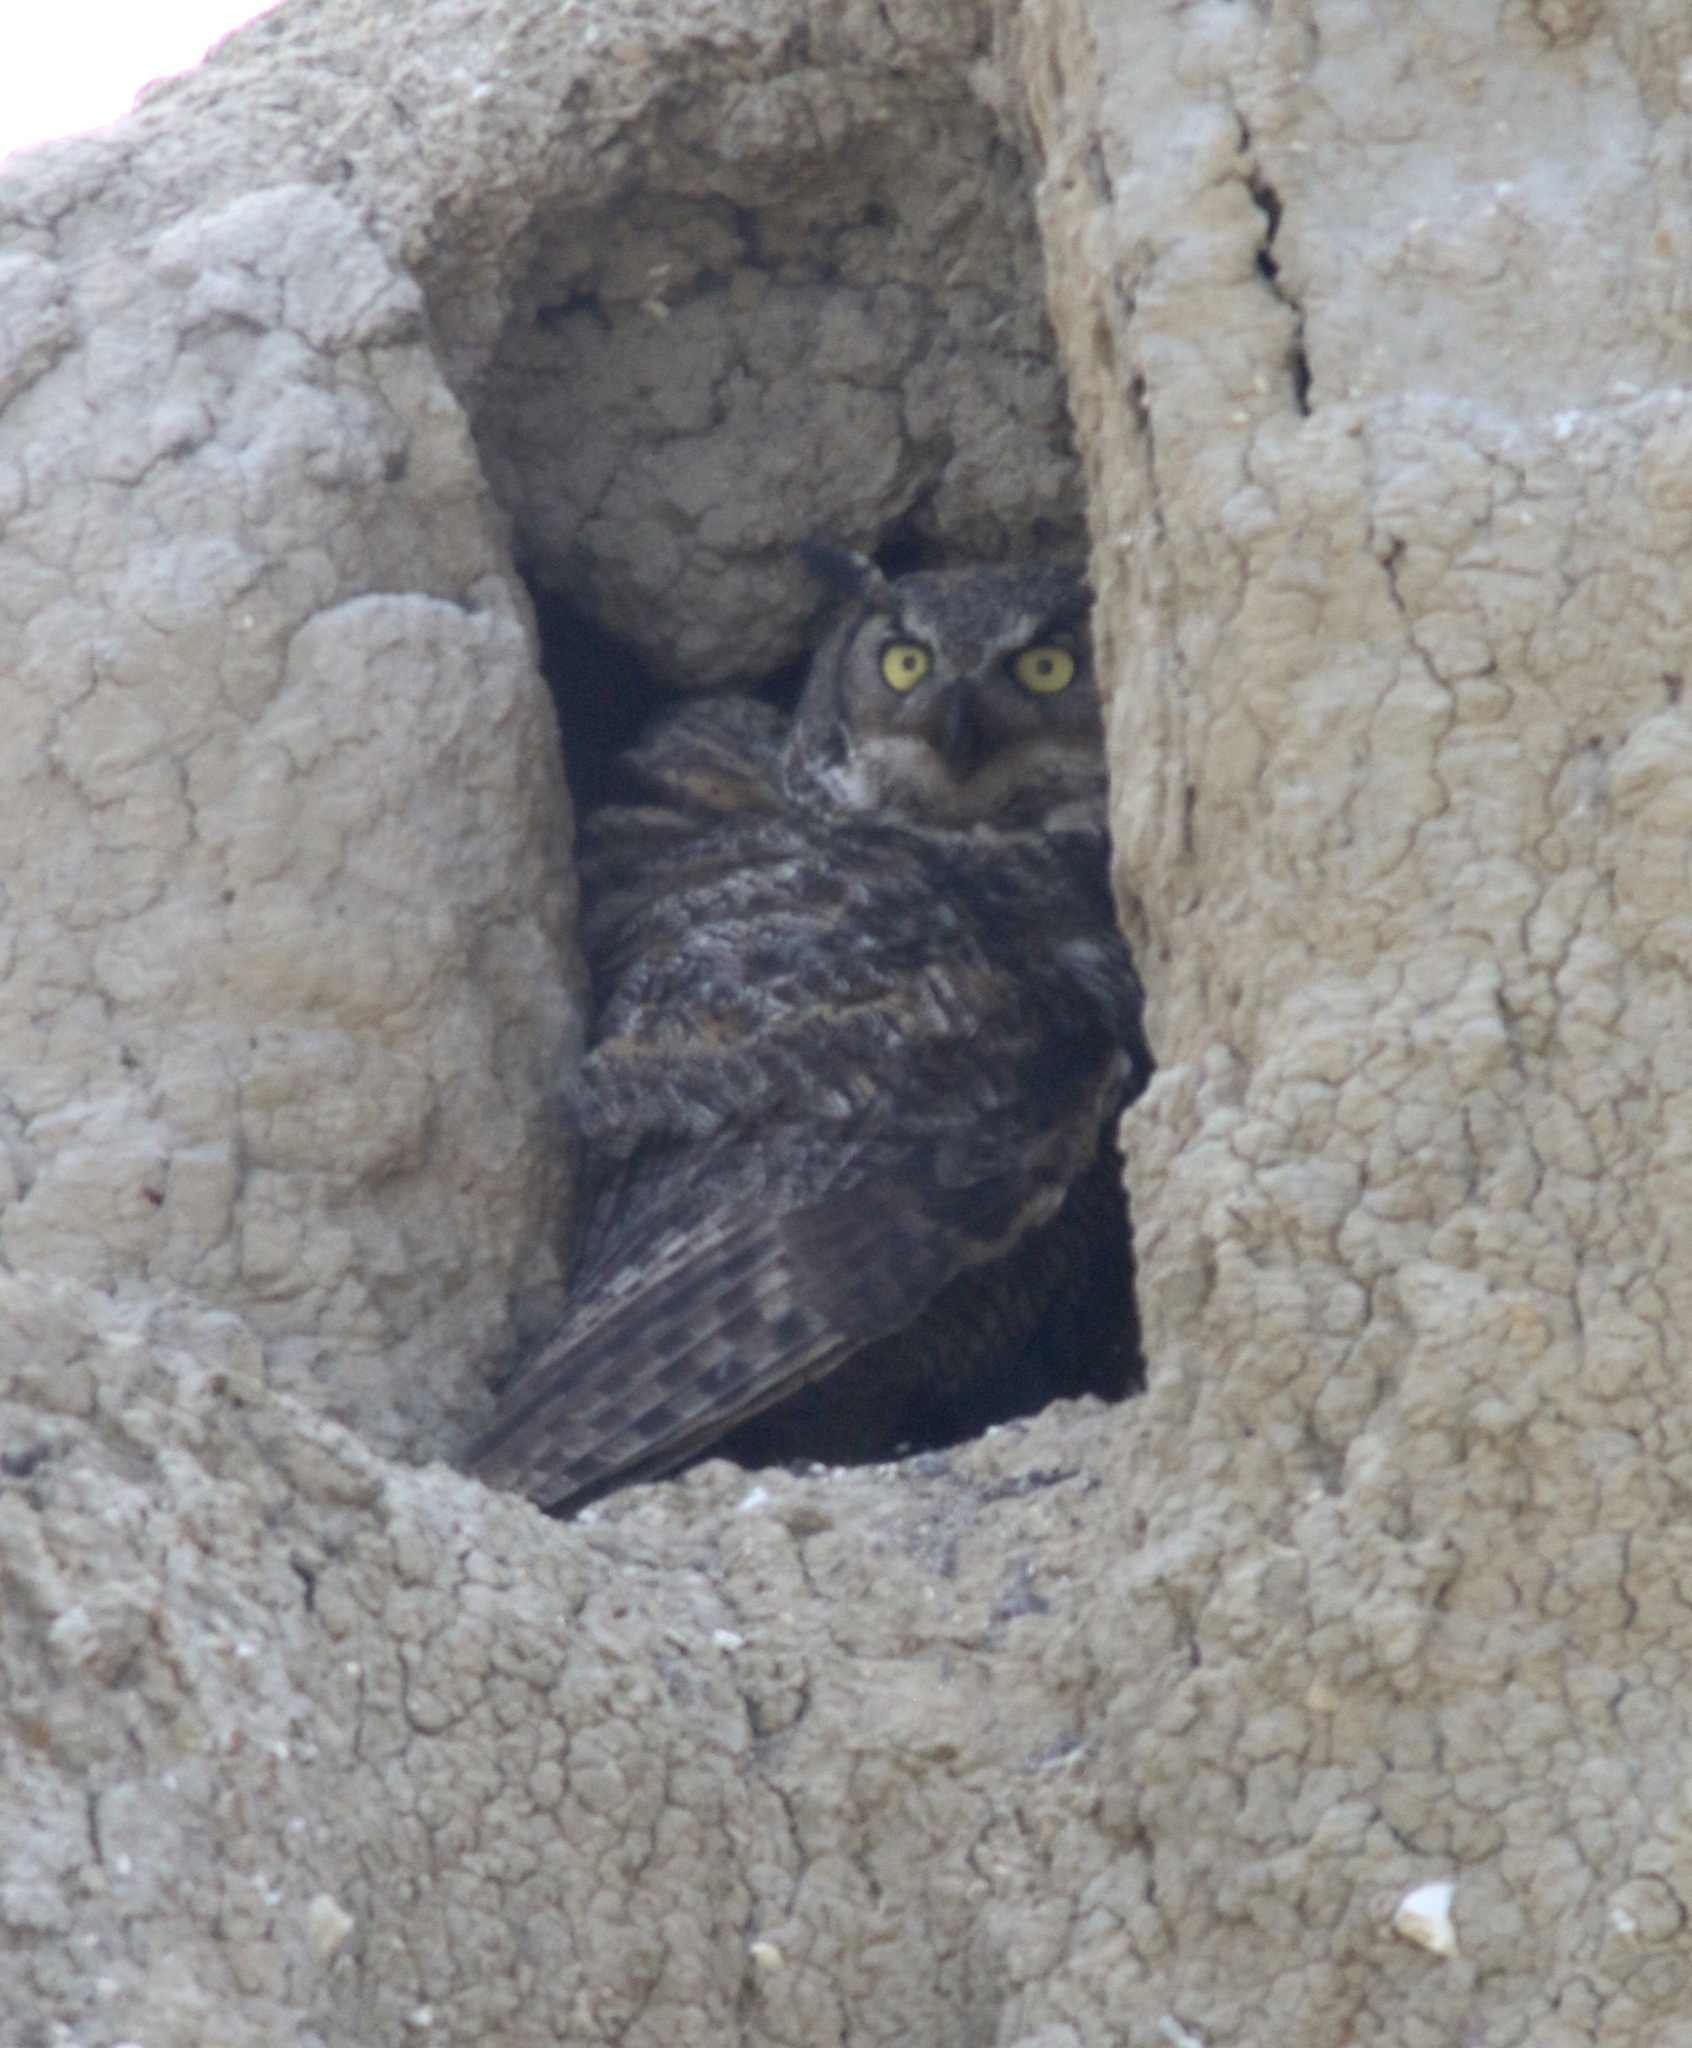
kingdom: Animalia
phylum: Chordata
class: Aves
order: Strigiformes
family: Strigidae
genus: Bubo
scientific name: Bubo virginianus
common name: Great horned owl
